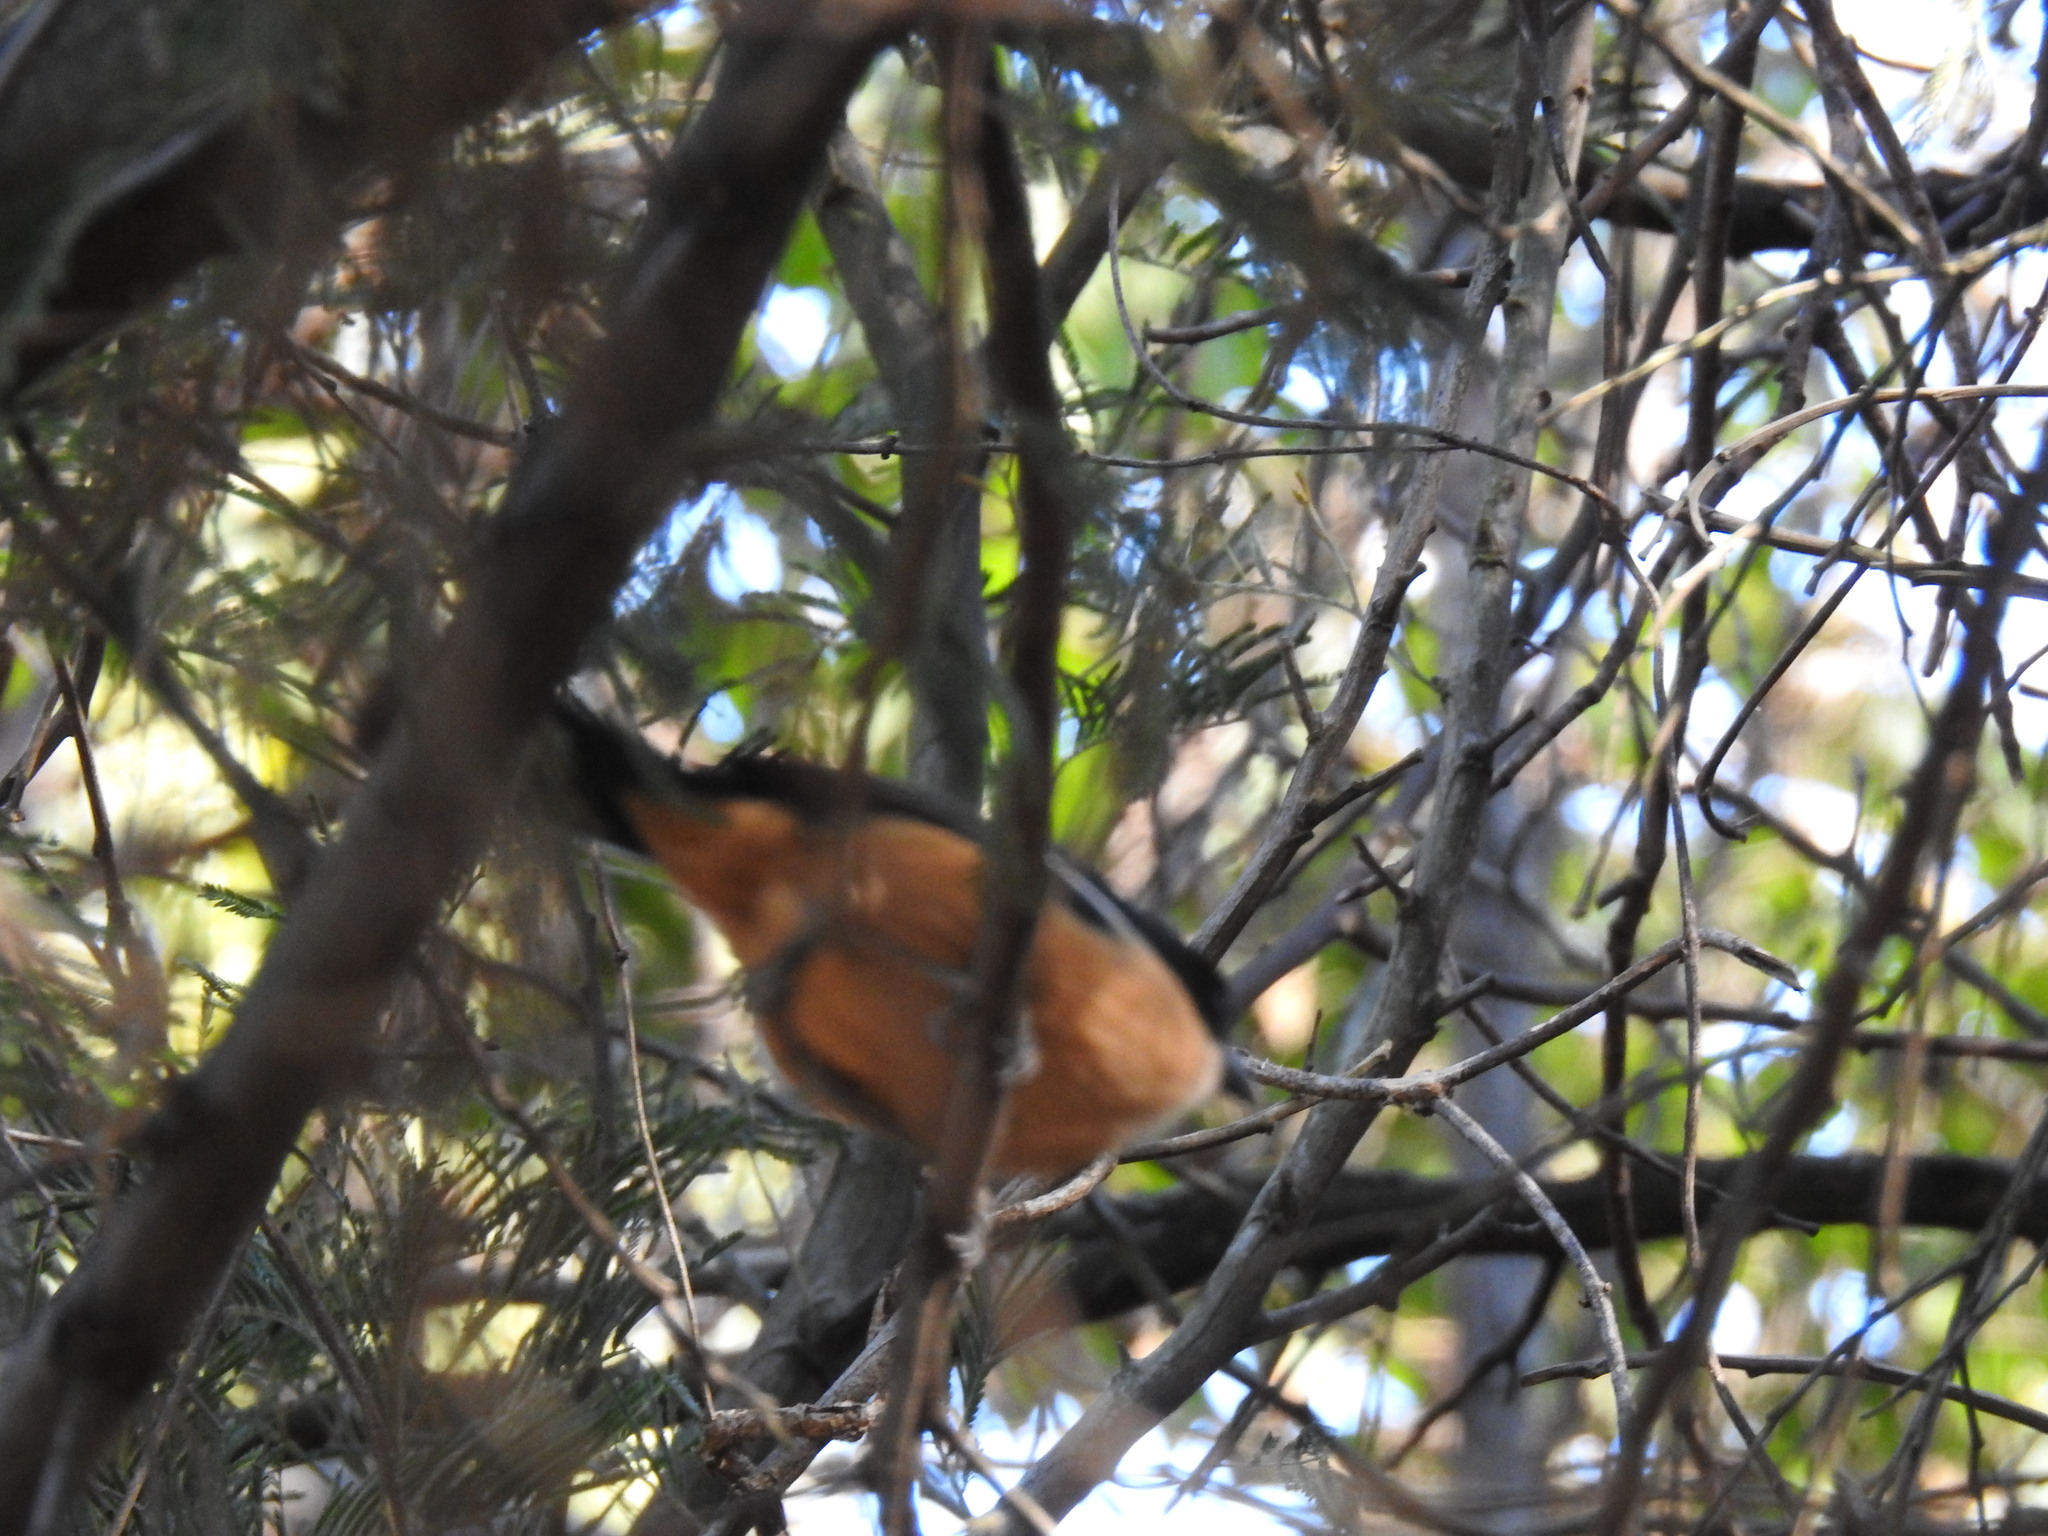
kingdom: Animalia
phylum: Chordata
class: Aves
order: Passeriformes
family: Malaconotidae
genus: Laniarius
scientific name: Laniarius ferrugineus
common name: Southern boubou
